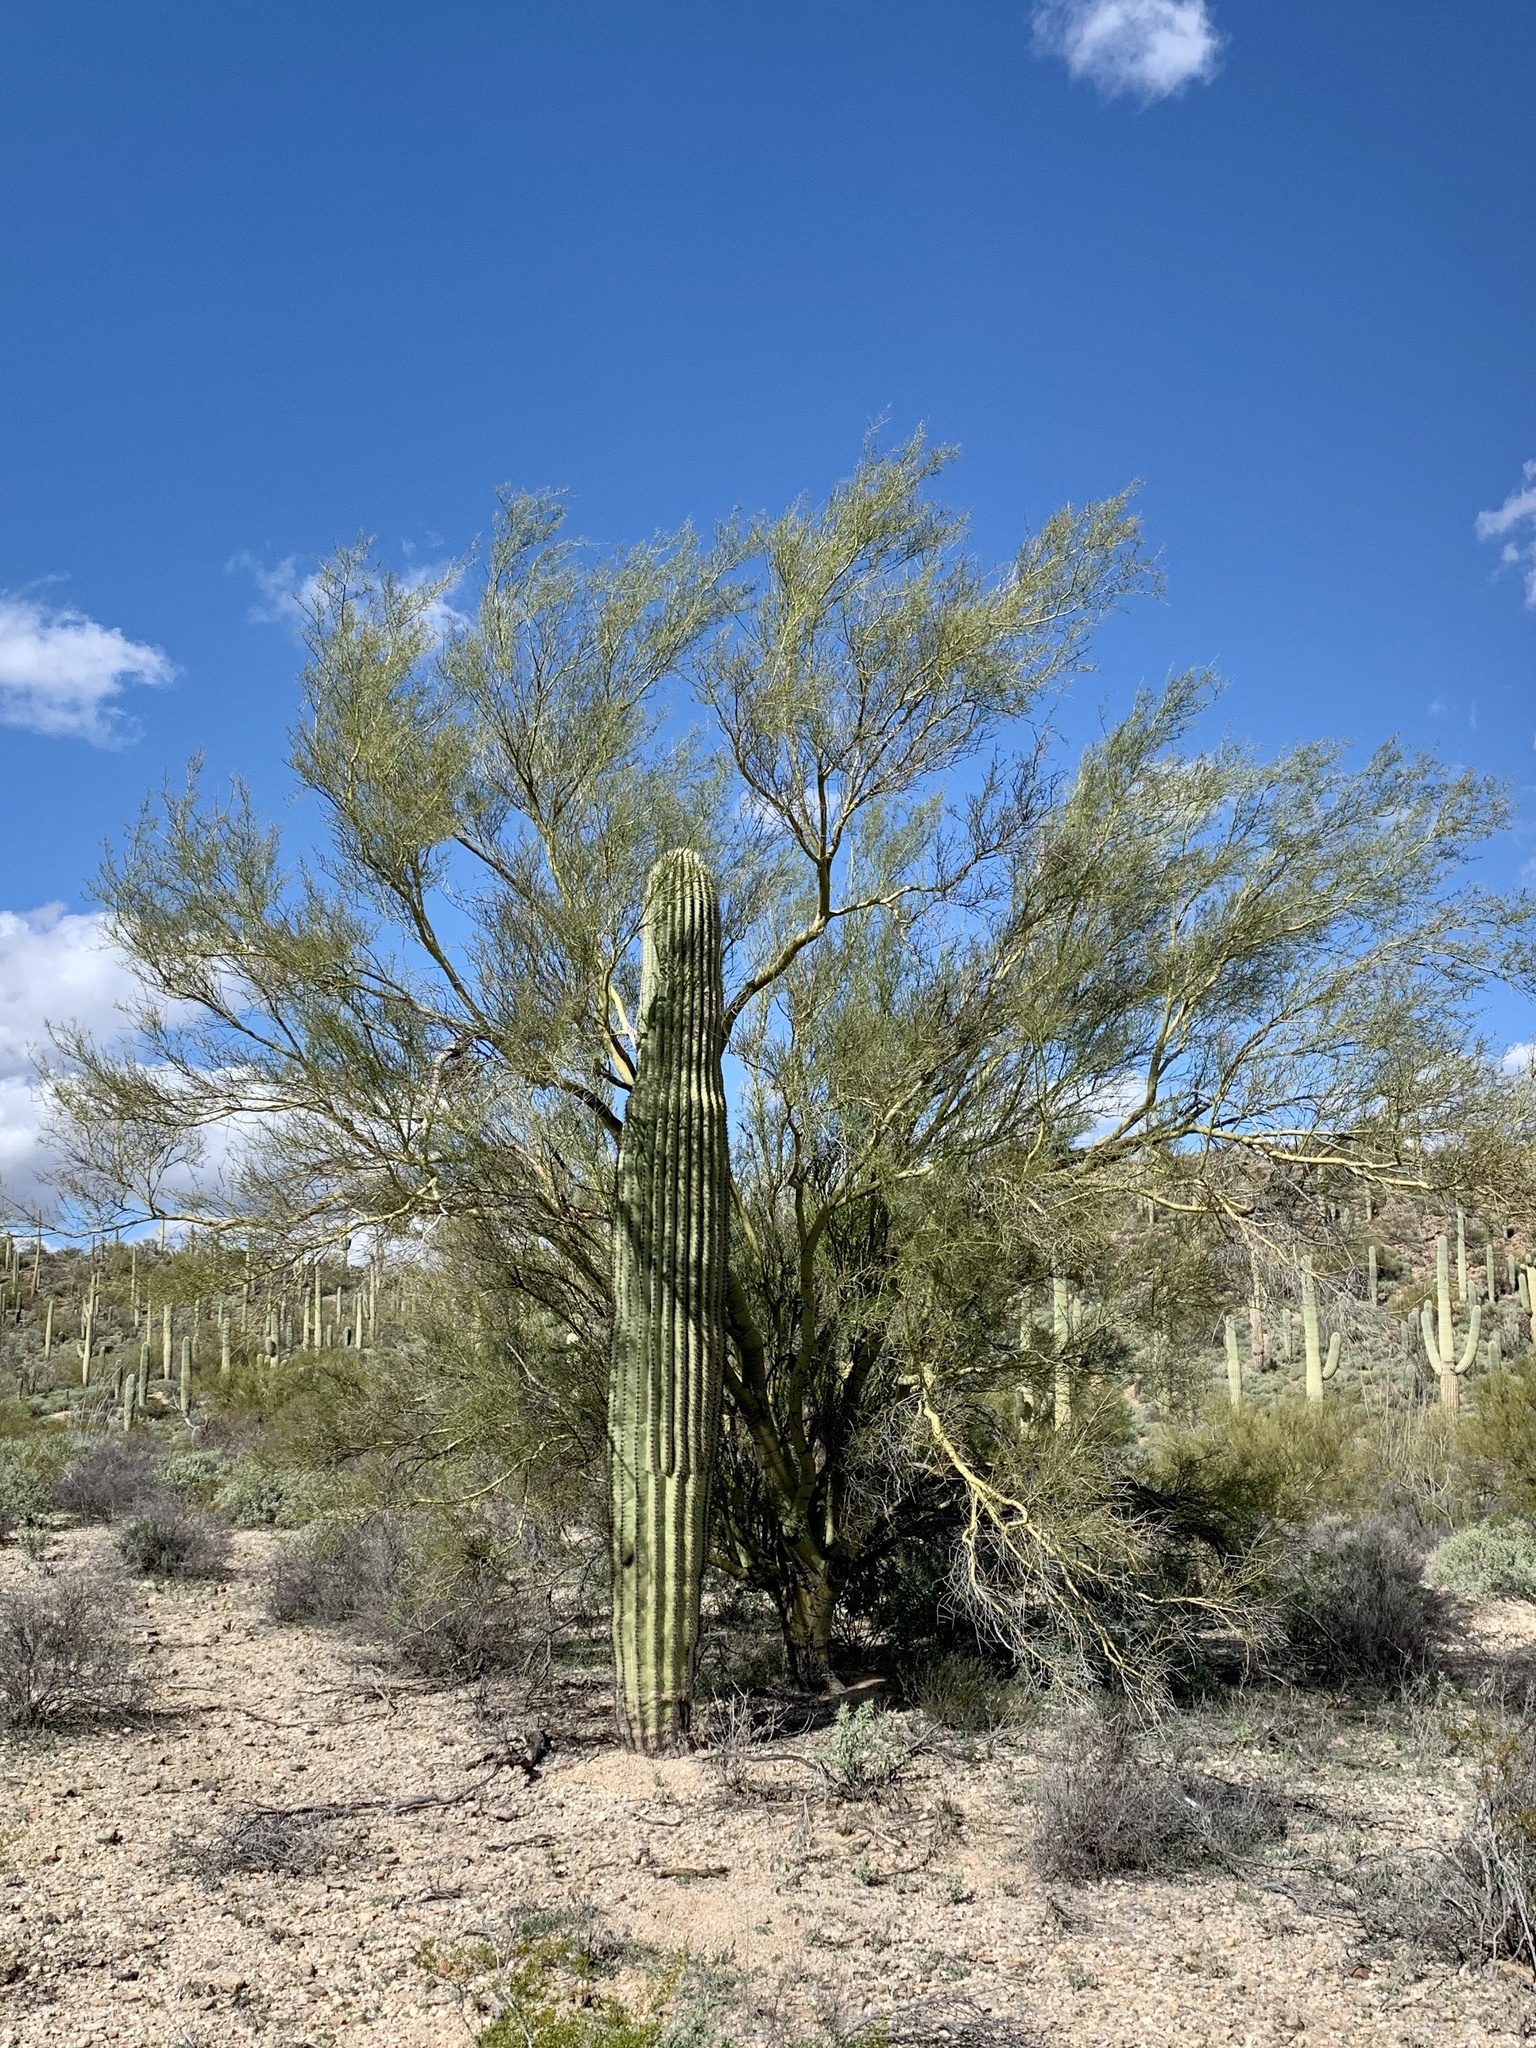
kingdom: Plantae
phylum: Tracheophyta
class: Magnoliopsida
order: Caryophyllales
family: Cactaceae
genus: Carnegiea
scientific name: Carnegiea gigantea
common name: Saguaro
